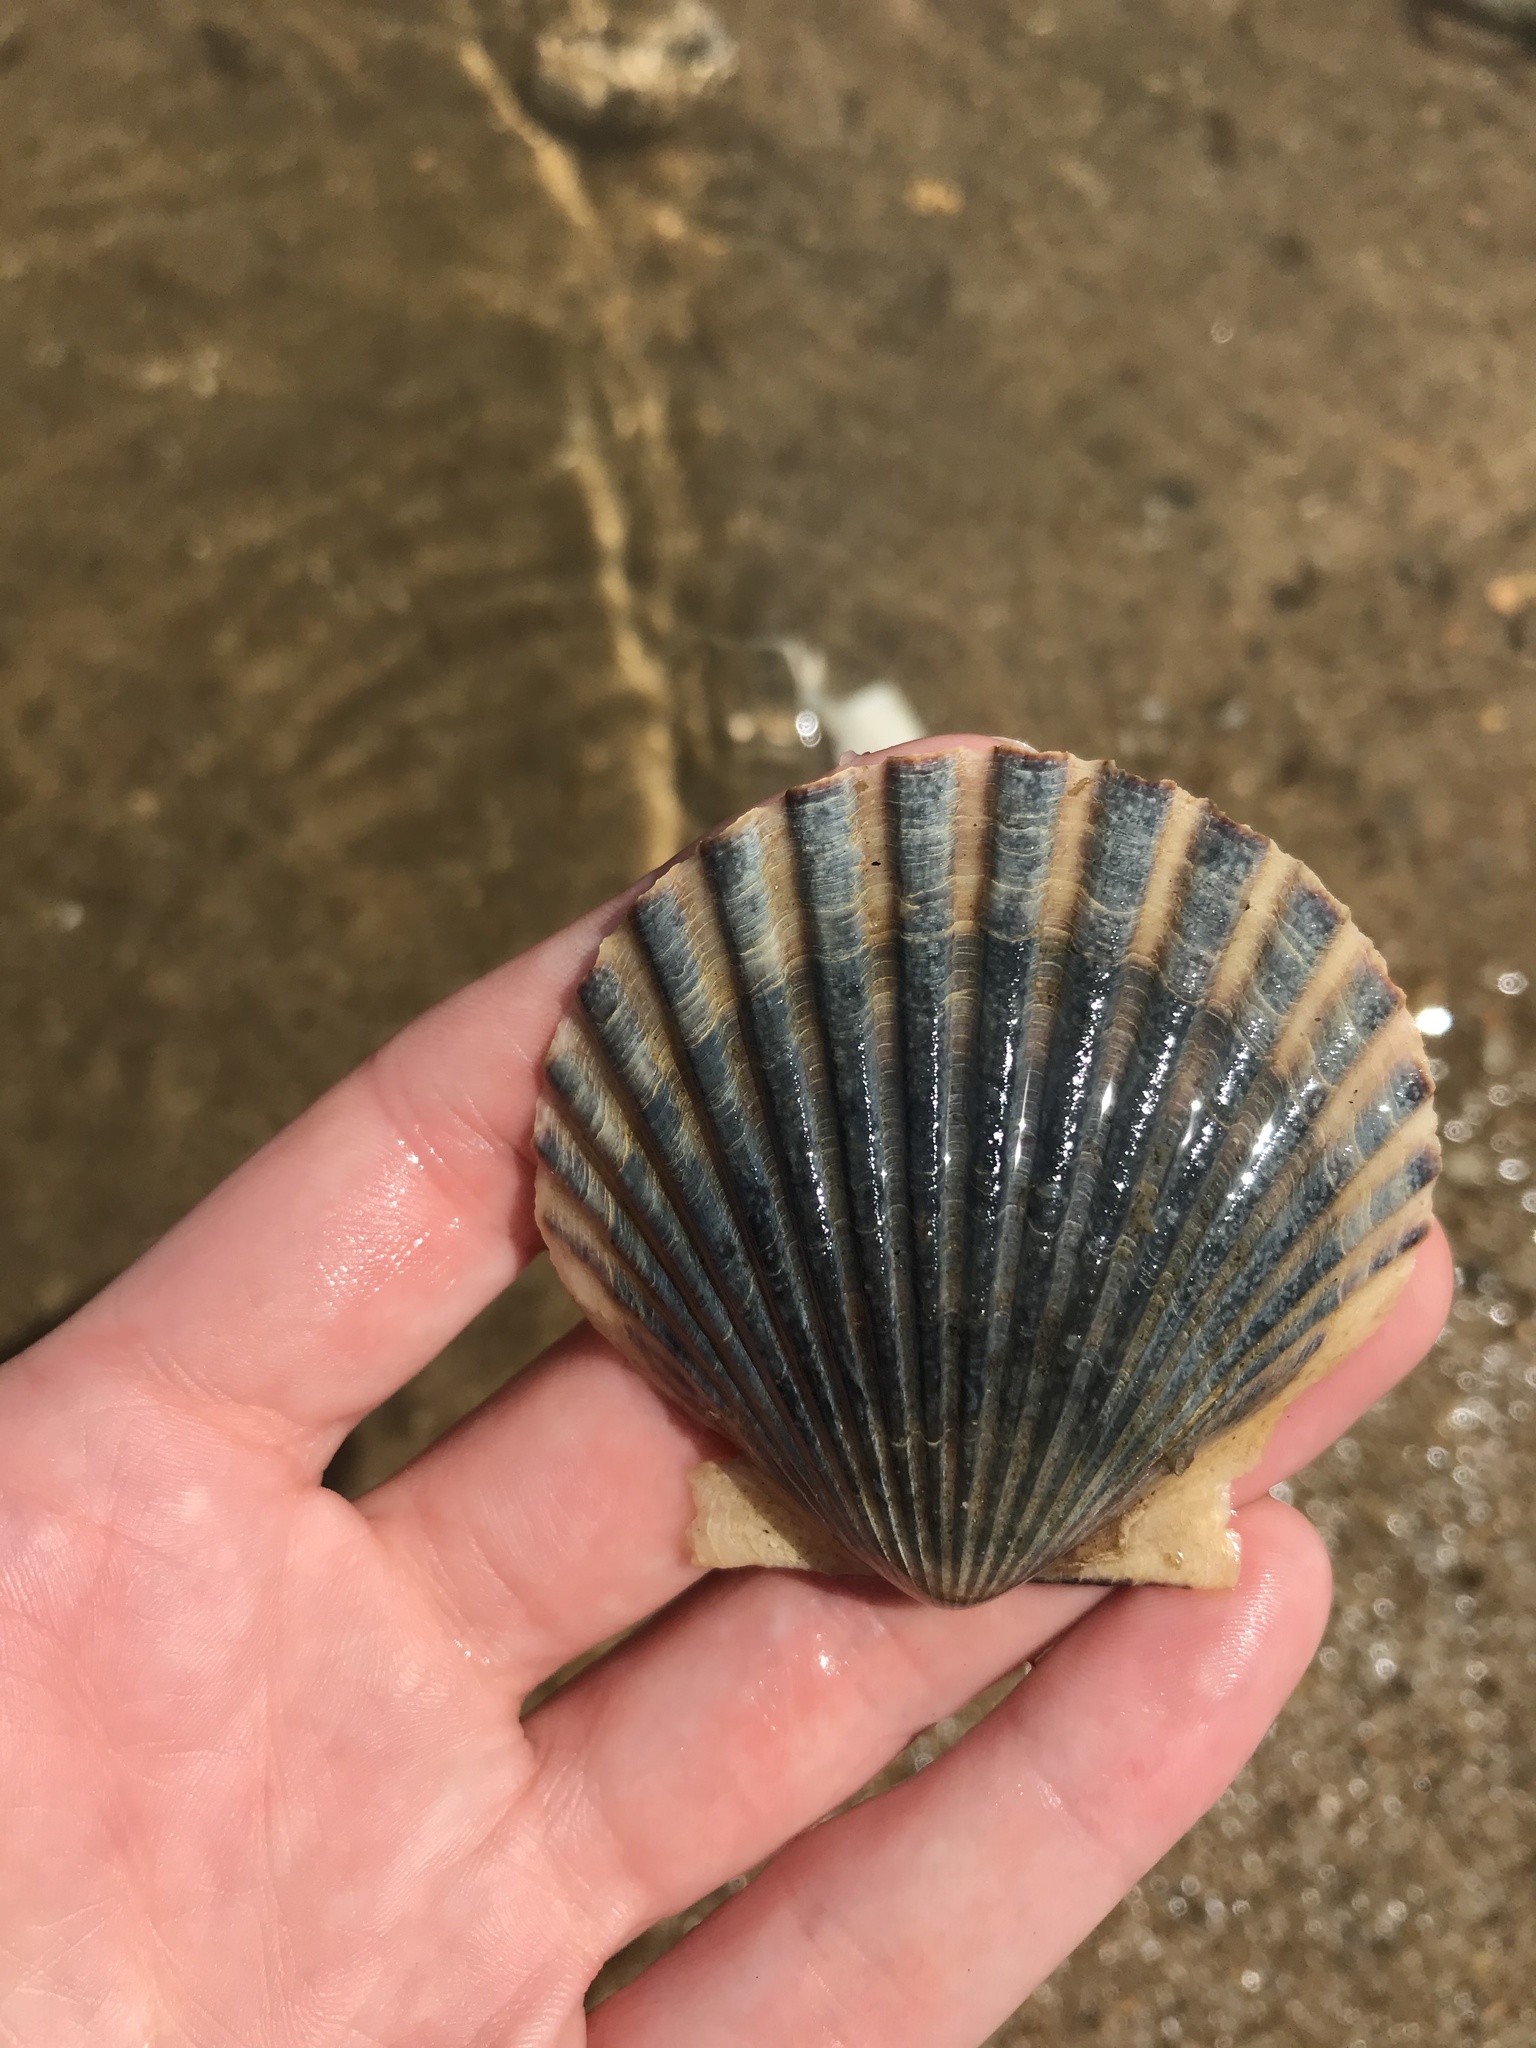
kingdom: Animalia
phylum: Mollusca
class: Bivalvia
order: Pectinida
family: Pectinidae
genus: Argopecten
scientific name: Argopecten irradians
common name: Atlantic bay scallop
